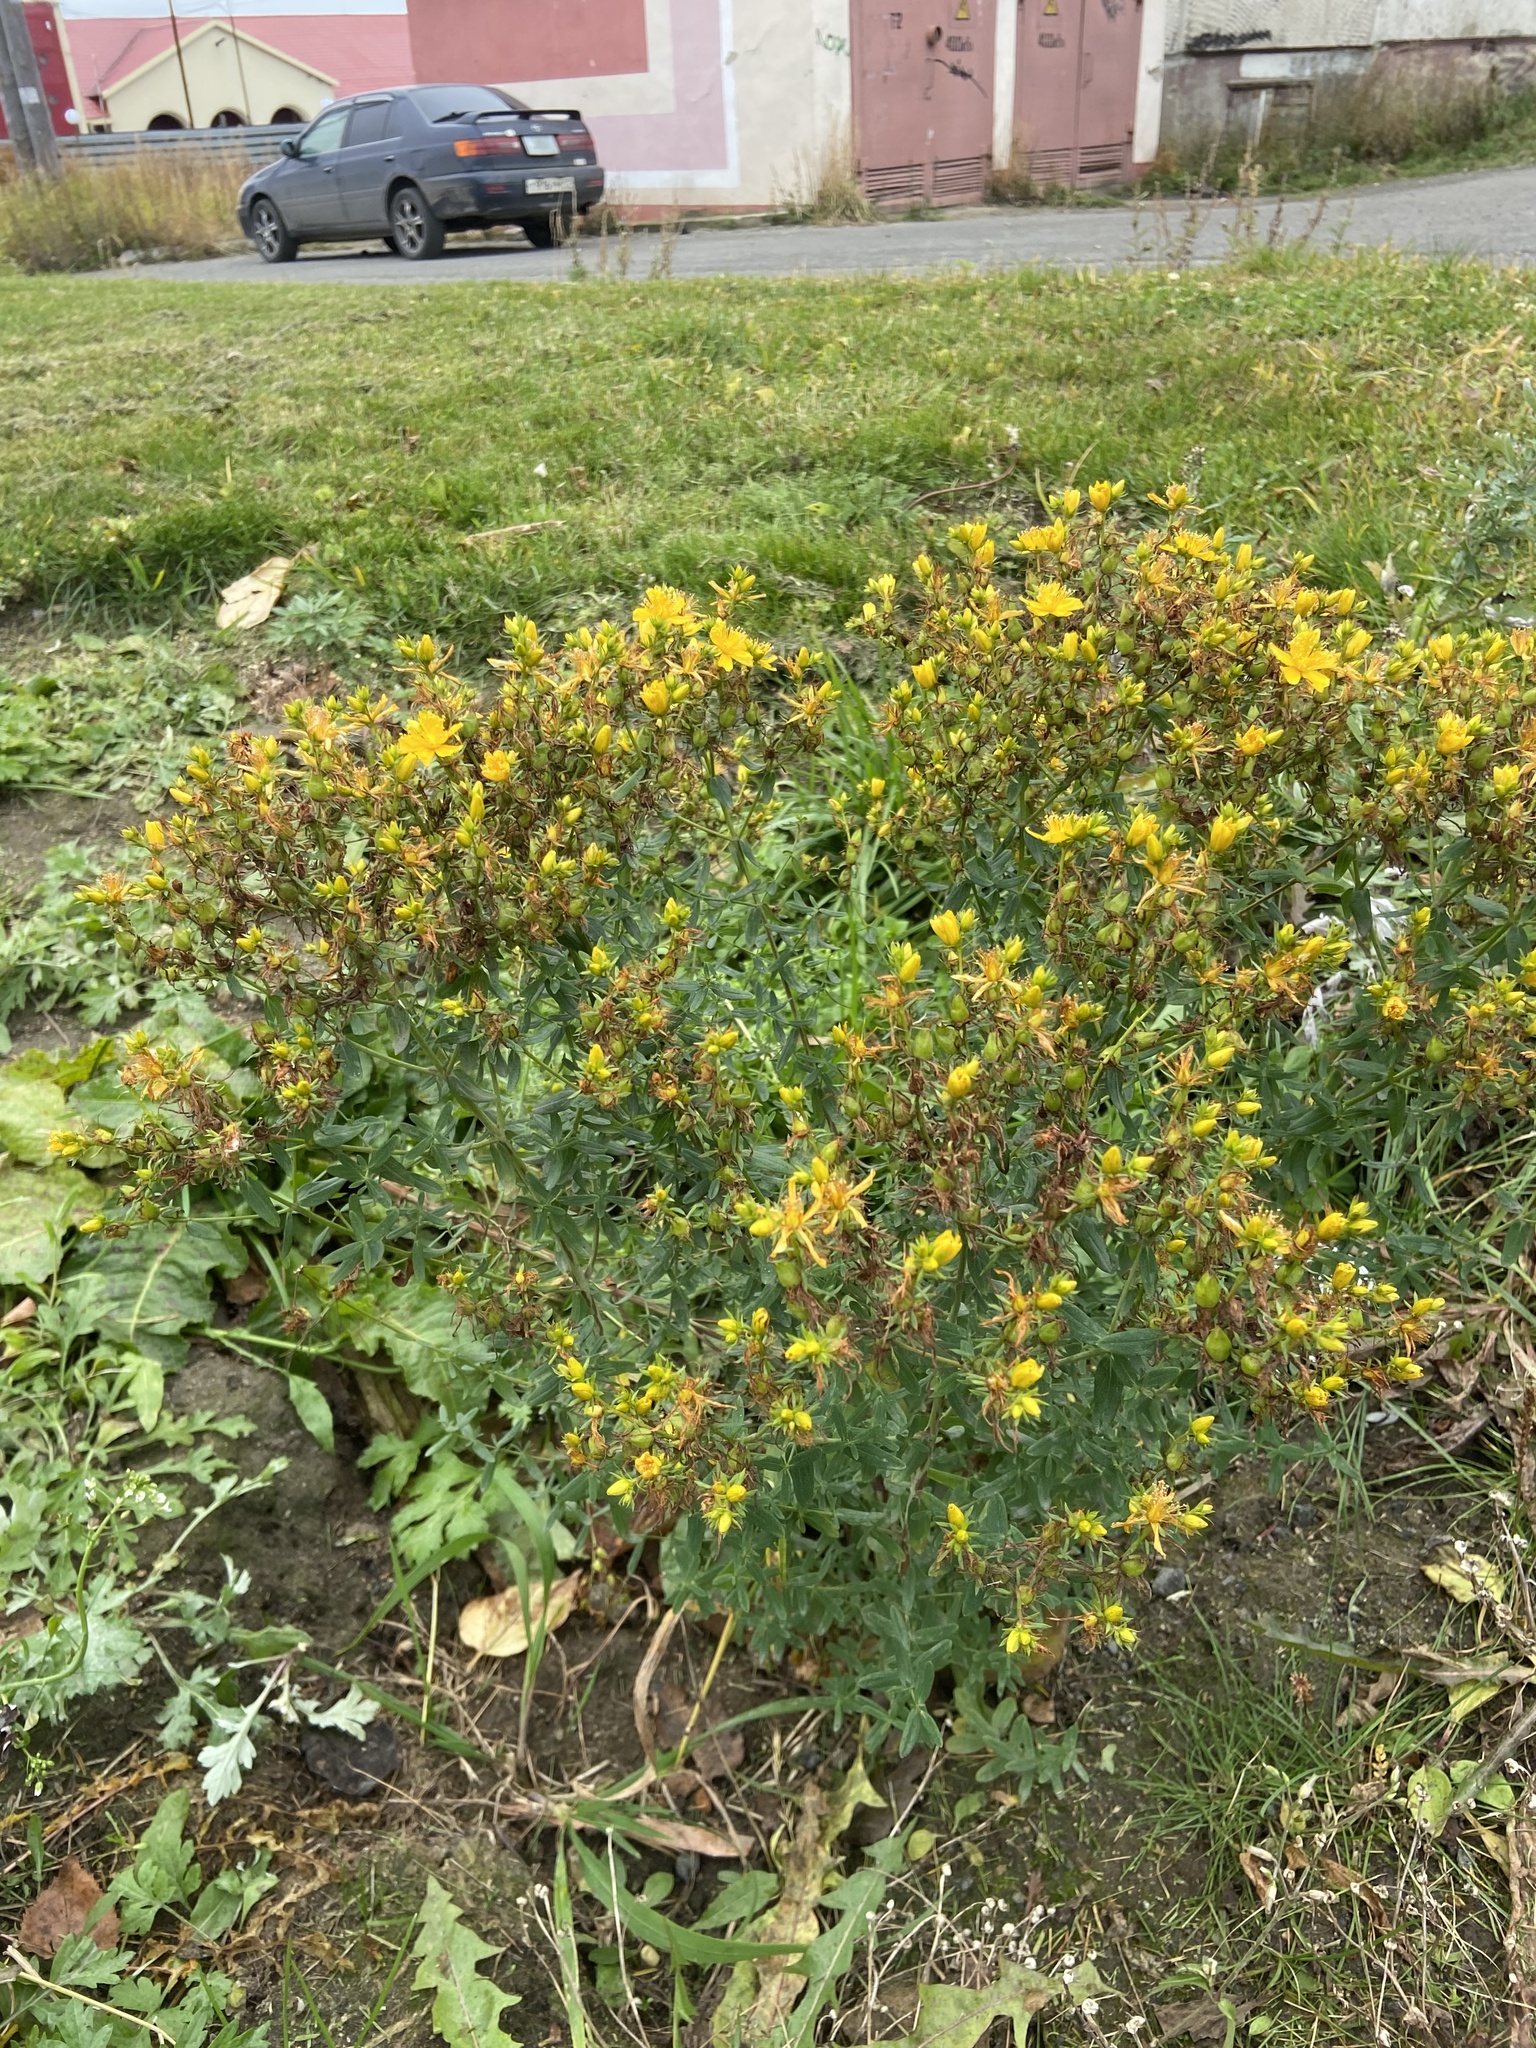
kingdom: Plantae
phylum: Tracheophyta
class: Magnoliopsida
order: Malpighiales
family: Hypericaceae
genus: Hypericum
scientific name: Hypericum perforatum
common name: Common st. johnswort
